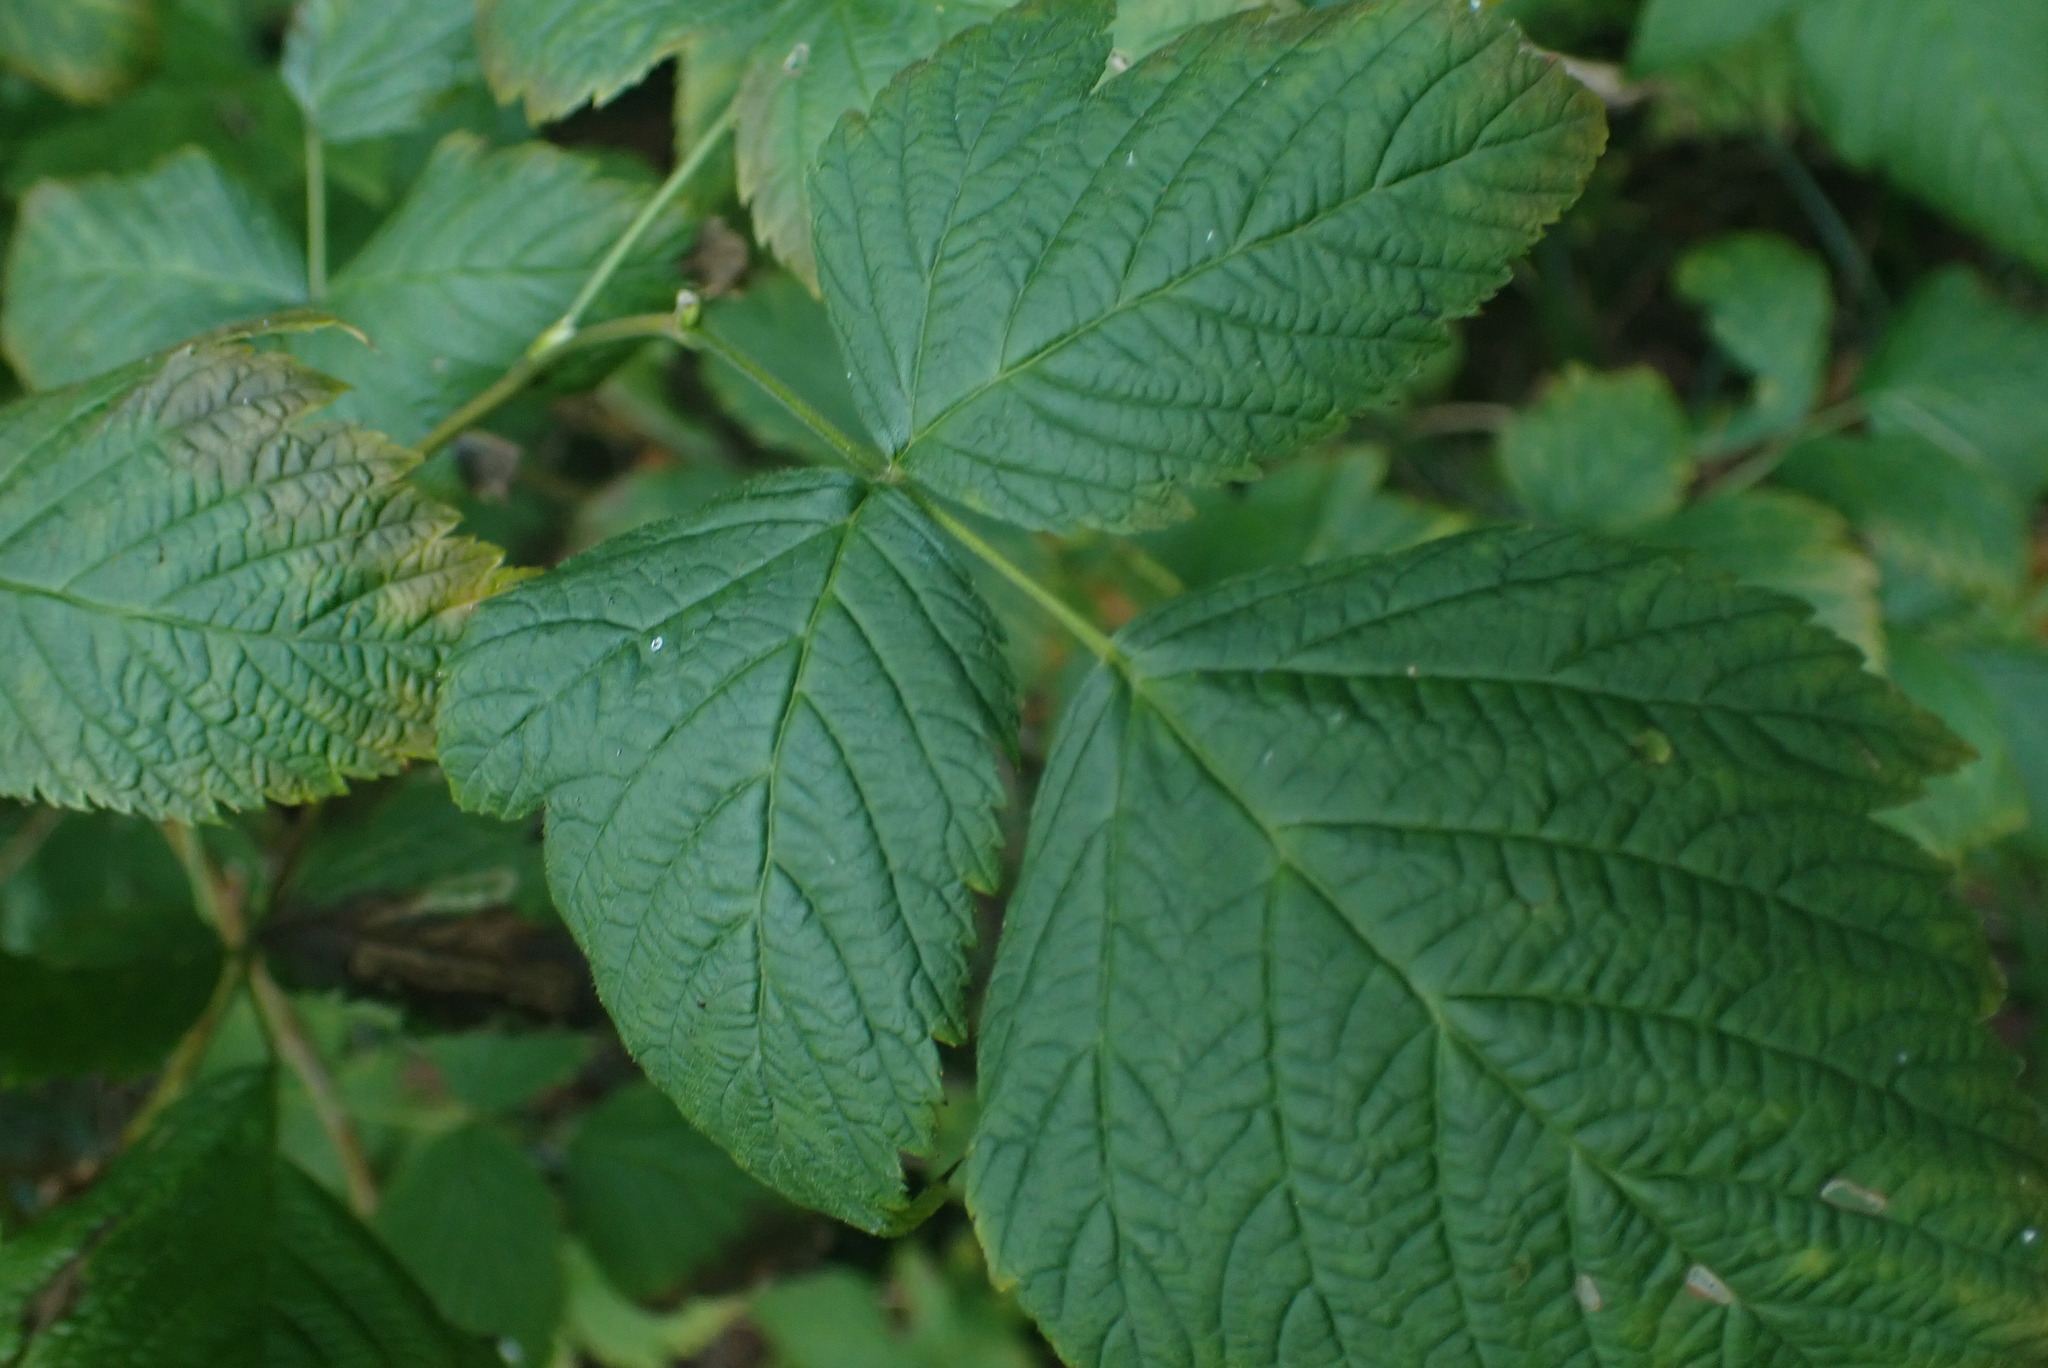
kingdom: Plantae
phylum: Tracheophyta
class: Magnoliopsida
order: Rosales
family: Rosaceae
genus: Rubus
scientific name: Rubus spectabilis
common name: Salmonberry
